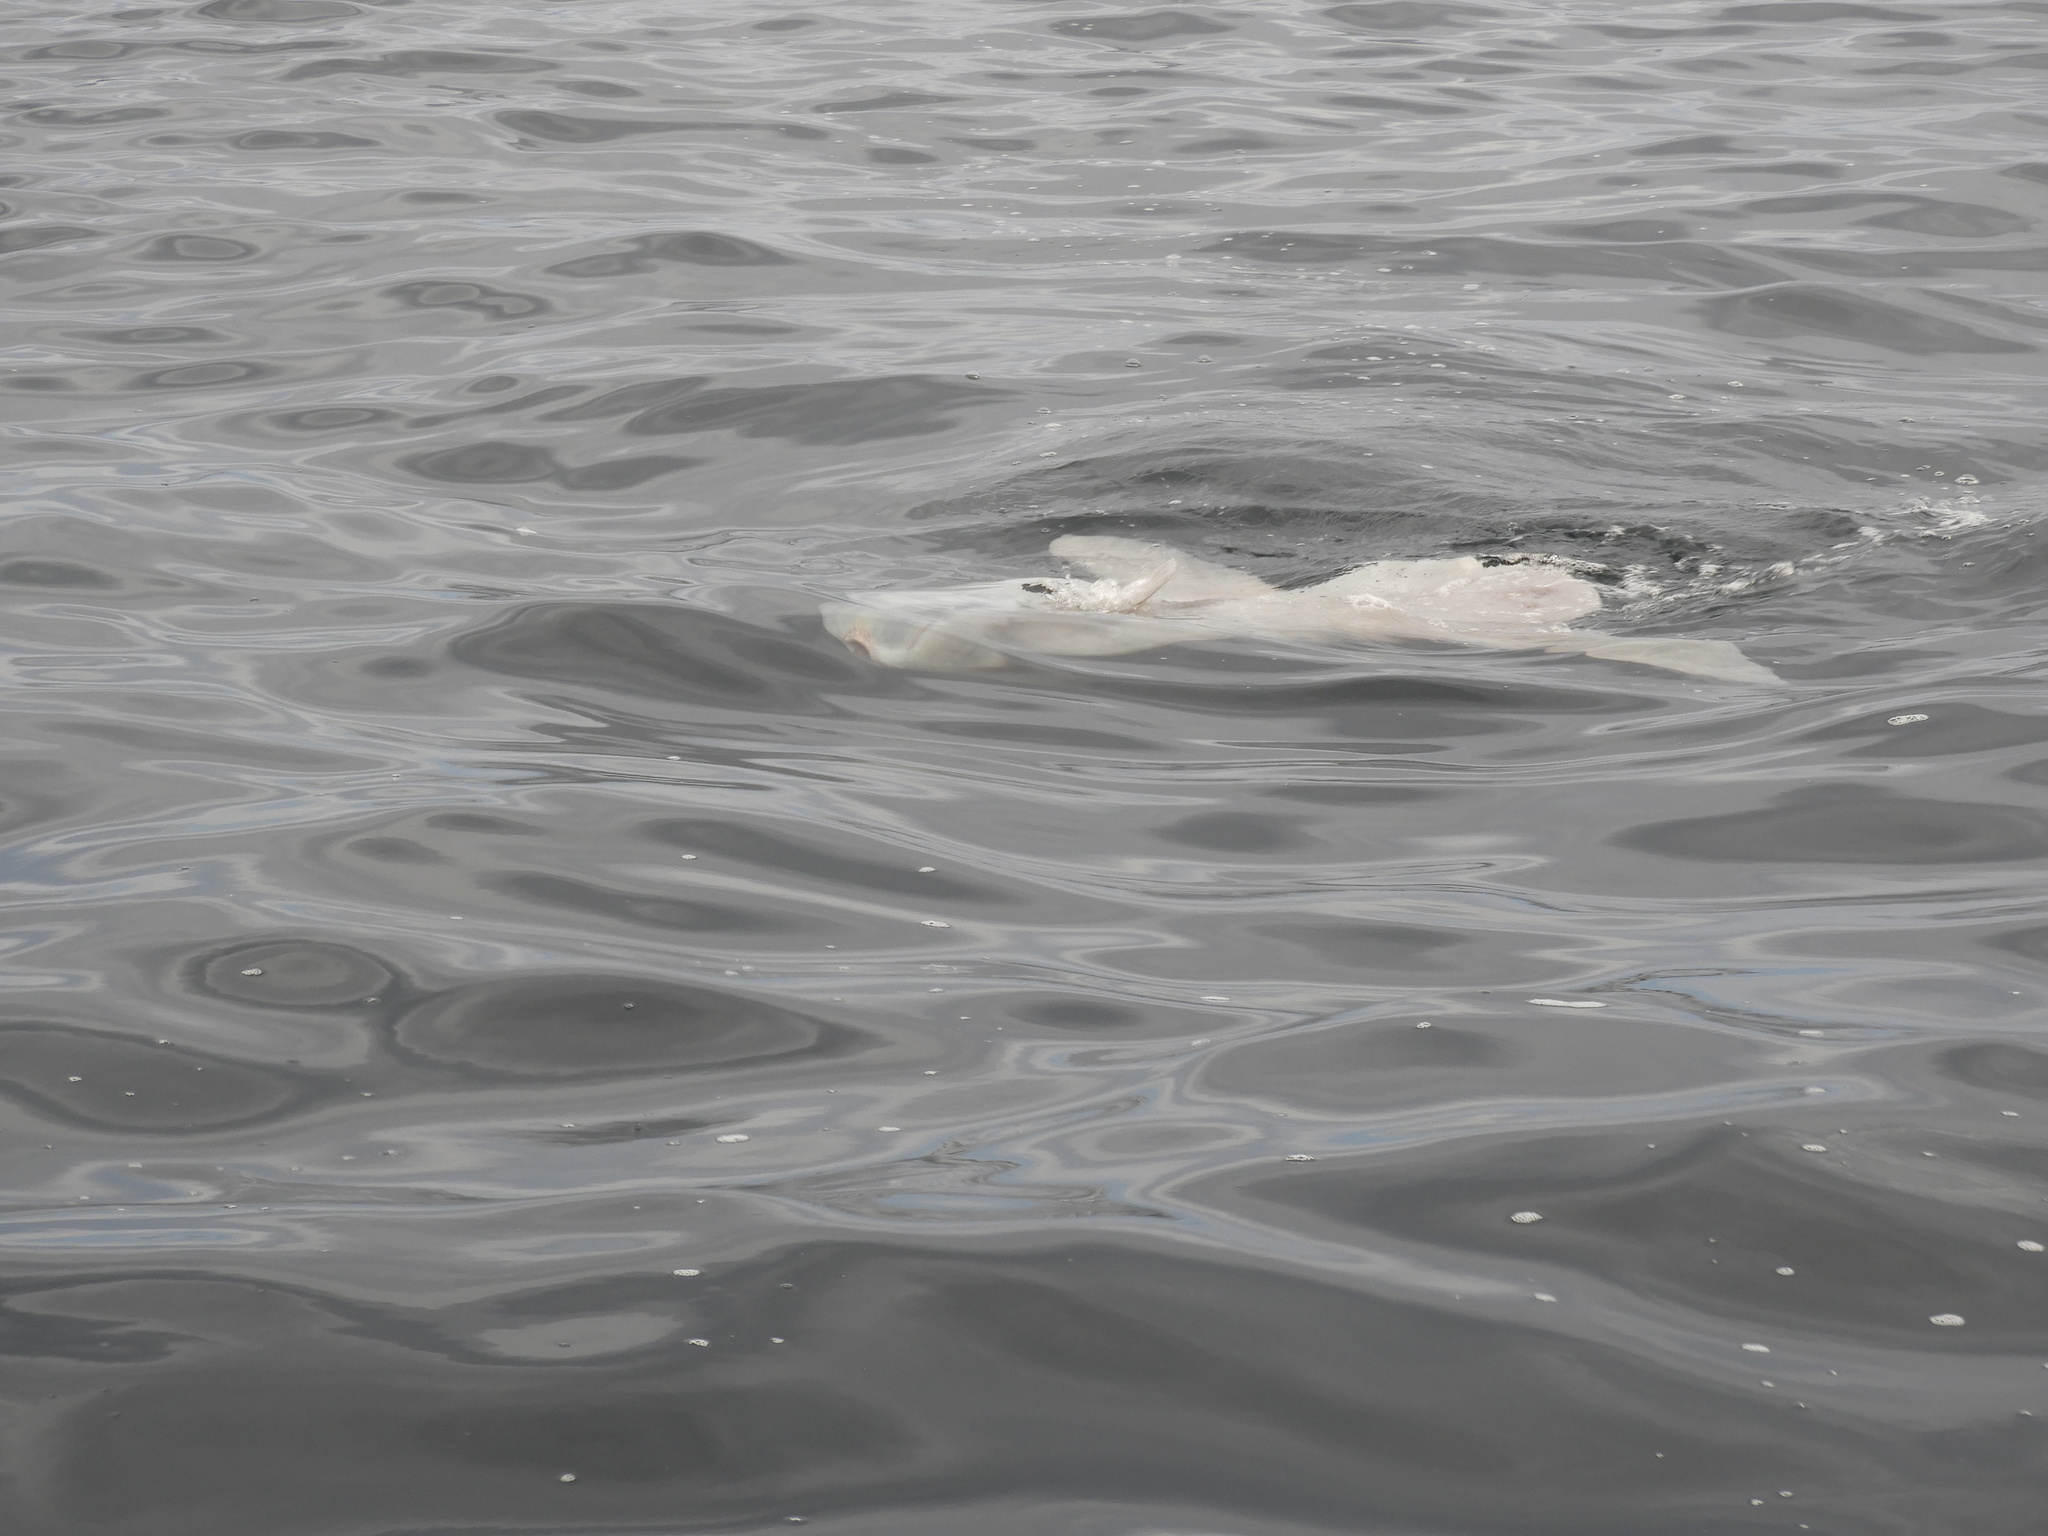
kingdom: Animalia
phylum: Chordata
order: Tetraodontiformes
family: Molidae
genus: Mola
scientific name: Mola mola
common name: Ocean sunfish
